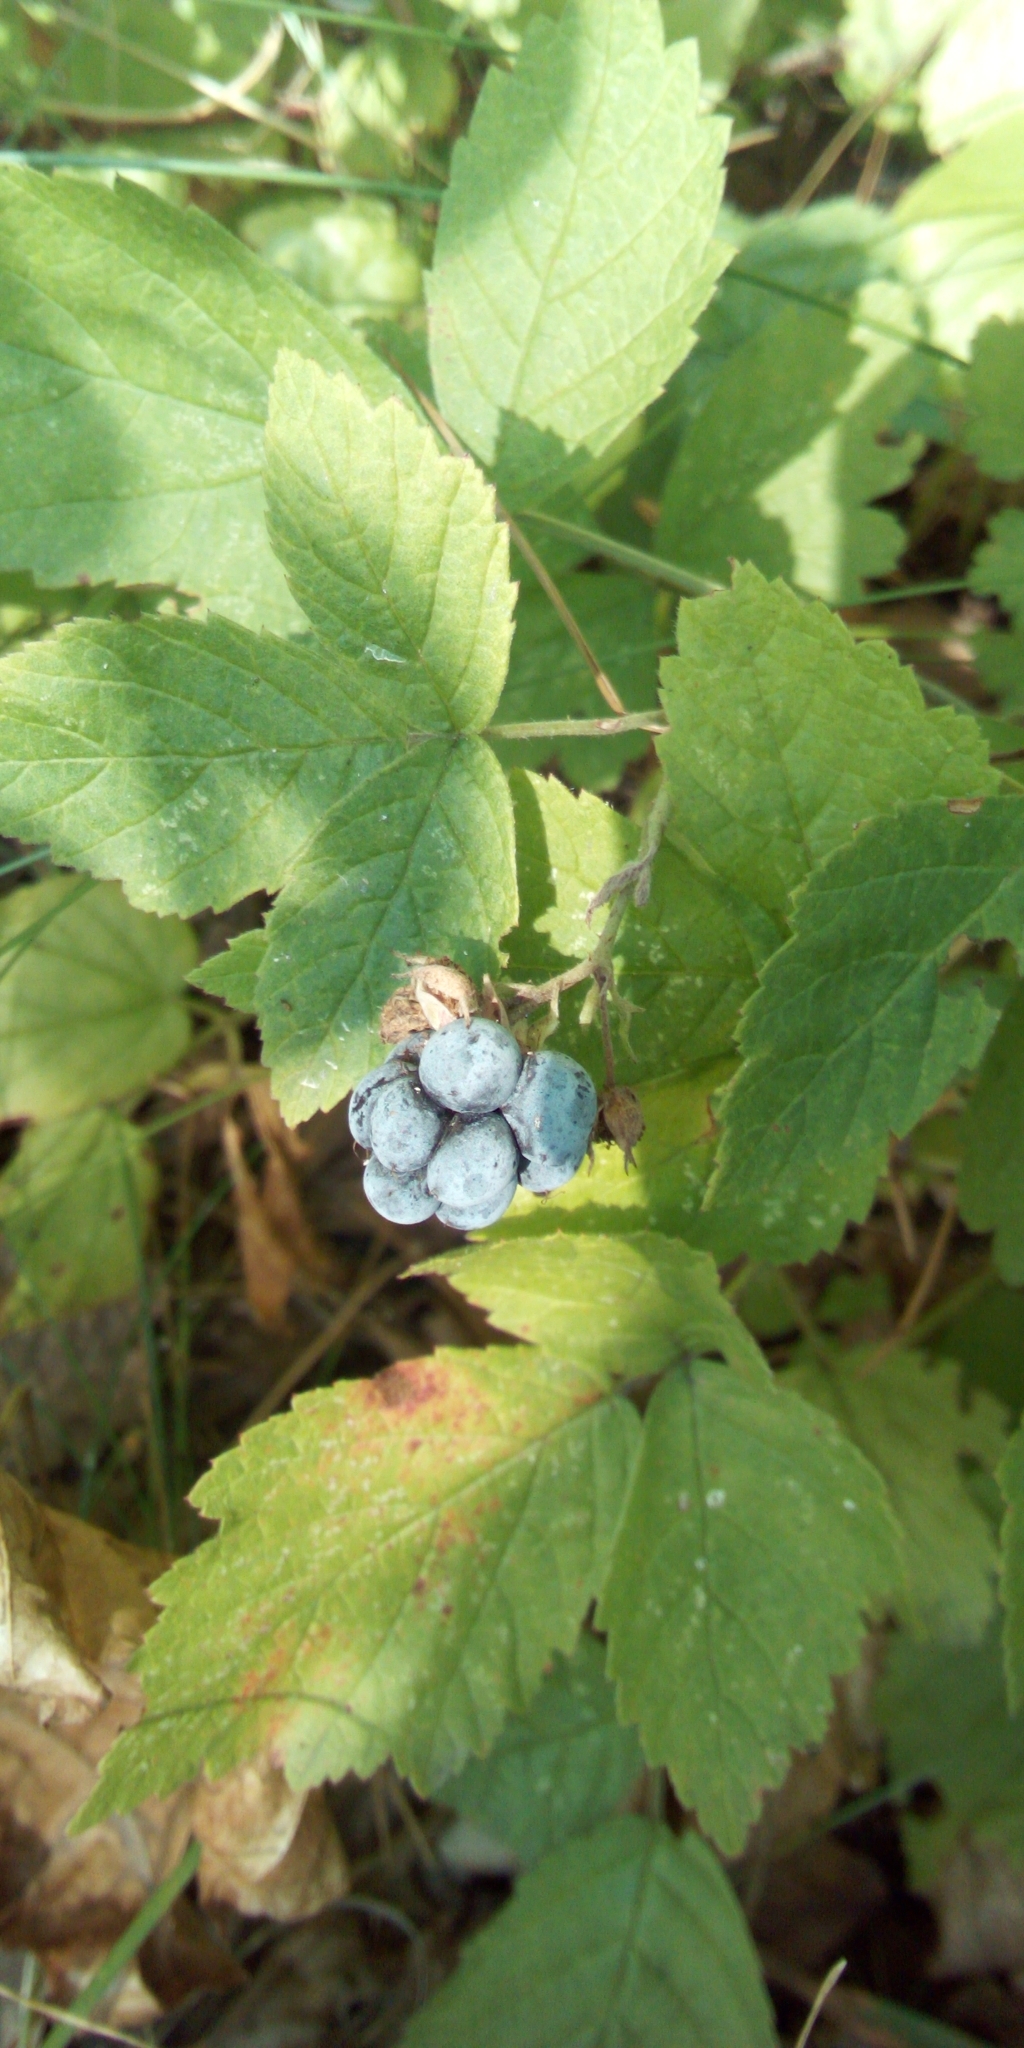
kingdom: Plantae
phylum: Tracheophyta
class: Magnoliopsida
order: Rosales
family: Rosaceae
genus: Rubus
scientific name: Rubus caesius
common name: Dewberry
